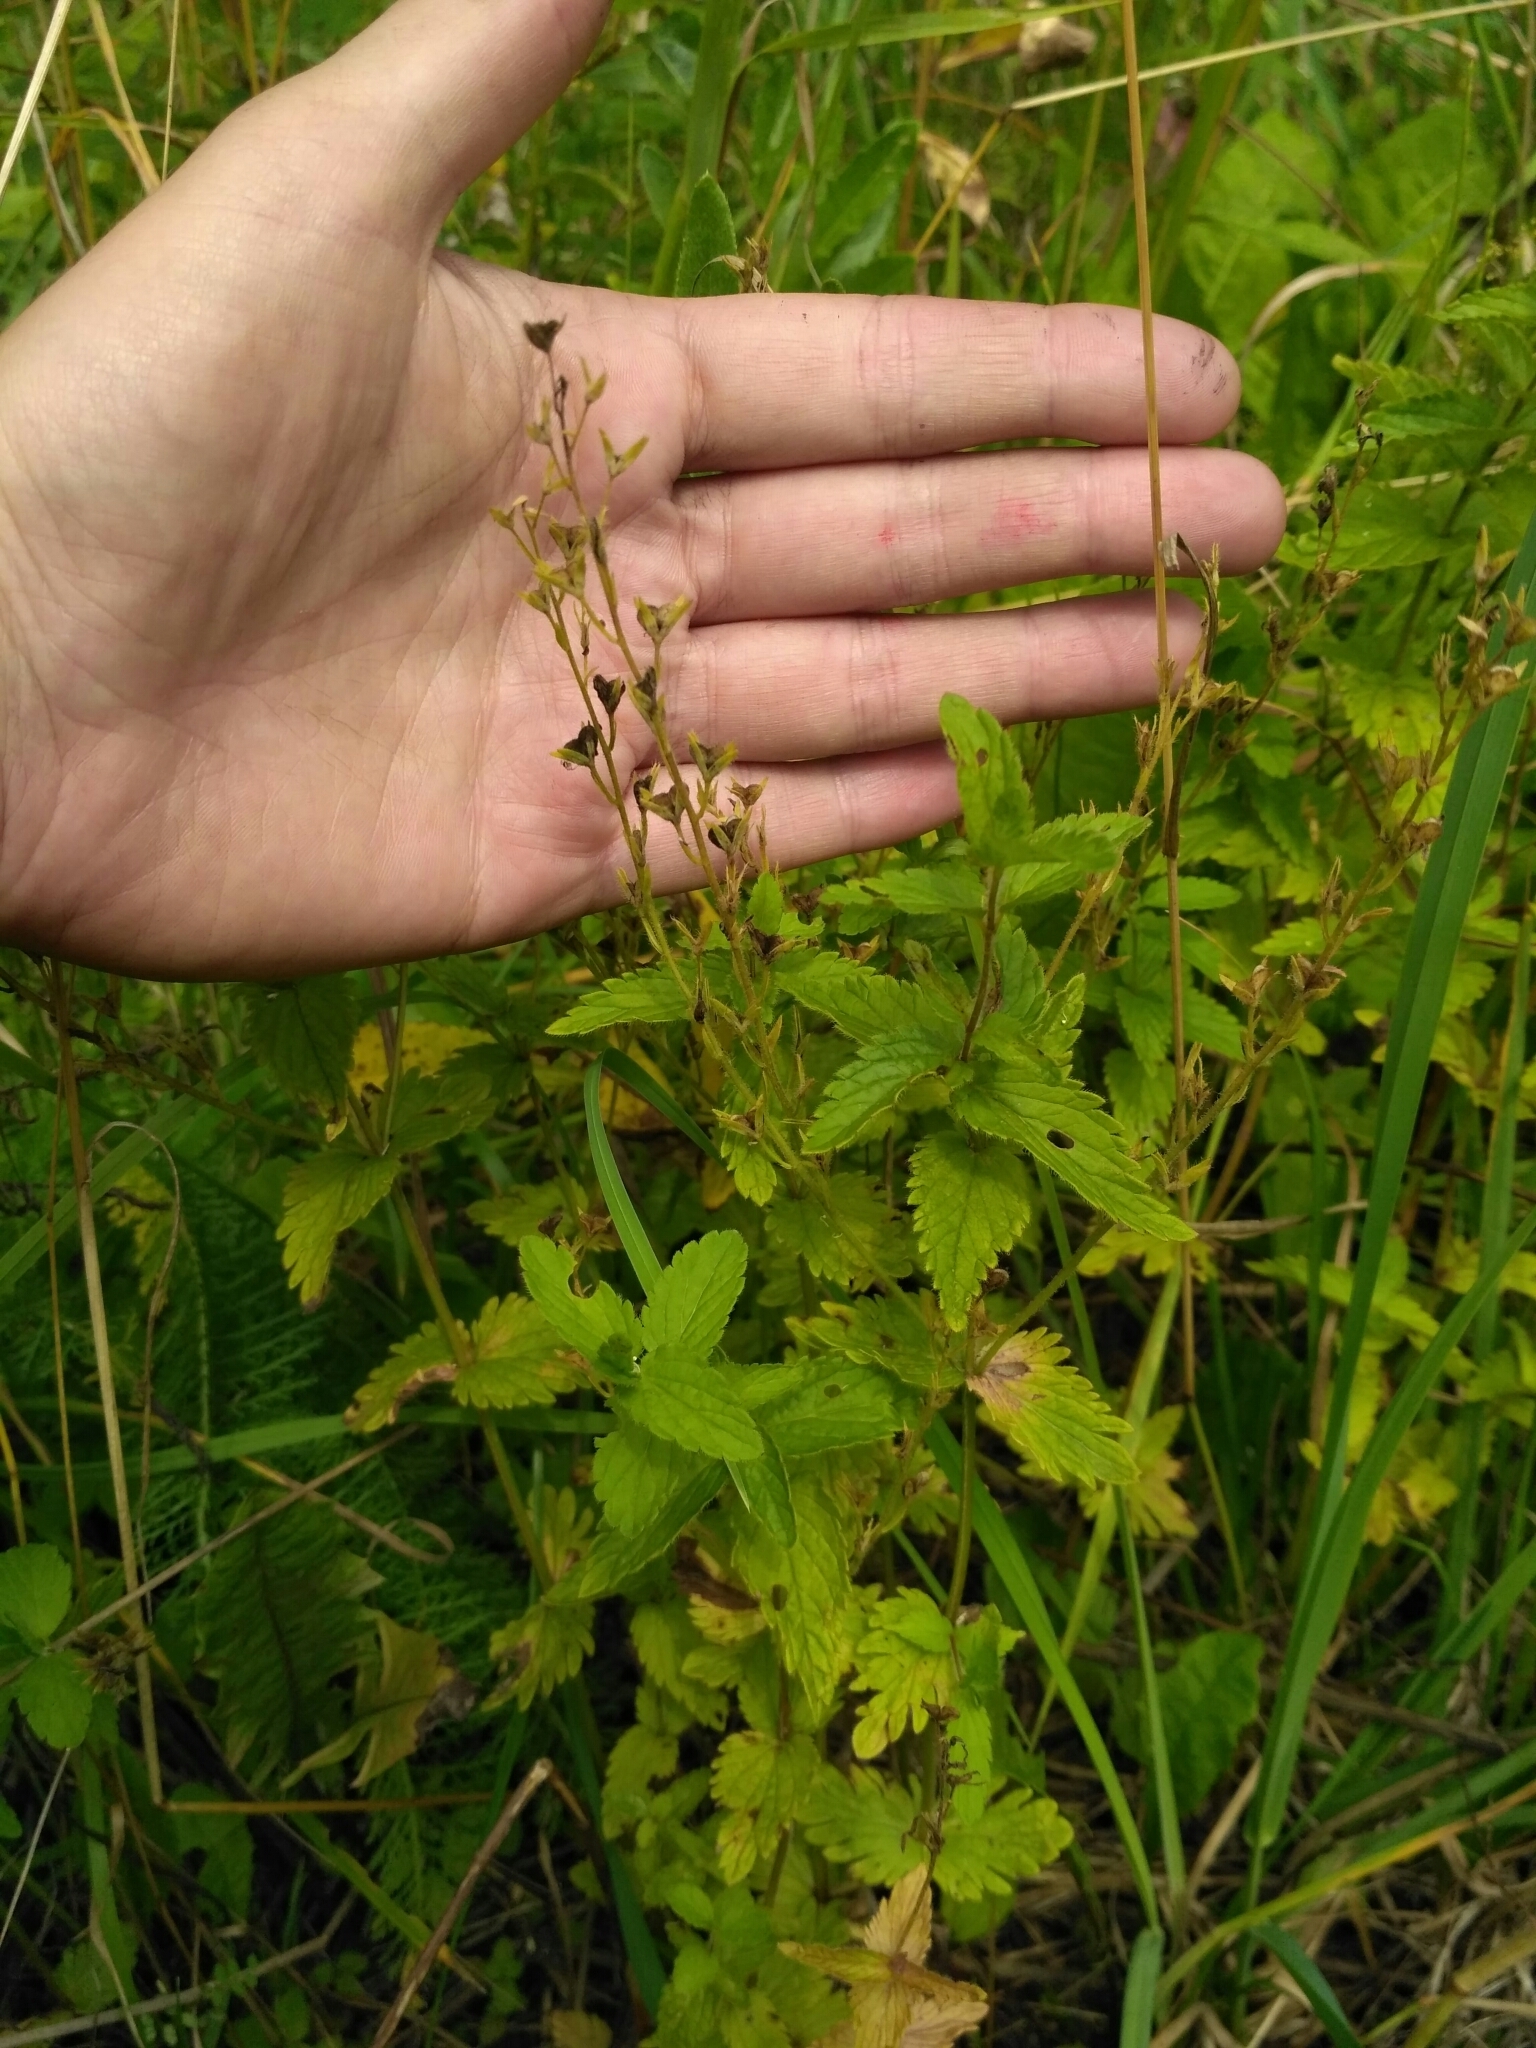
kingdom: Plantae
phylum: Tracheophyta
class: Magnoliopsida
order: Lamiales
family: Plantaginaceae
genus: Veronica
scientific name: Veronica chamaedrys
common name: Germander speedwell
